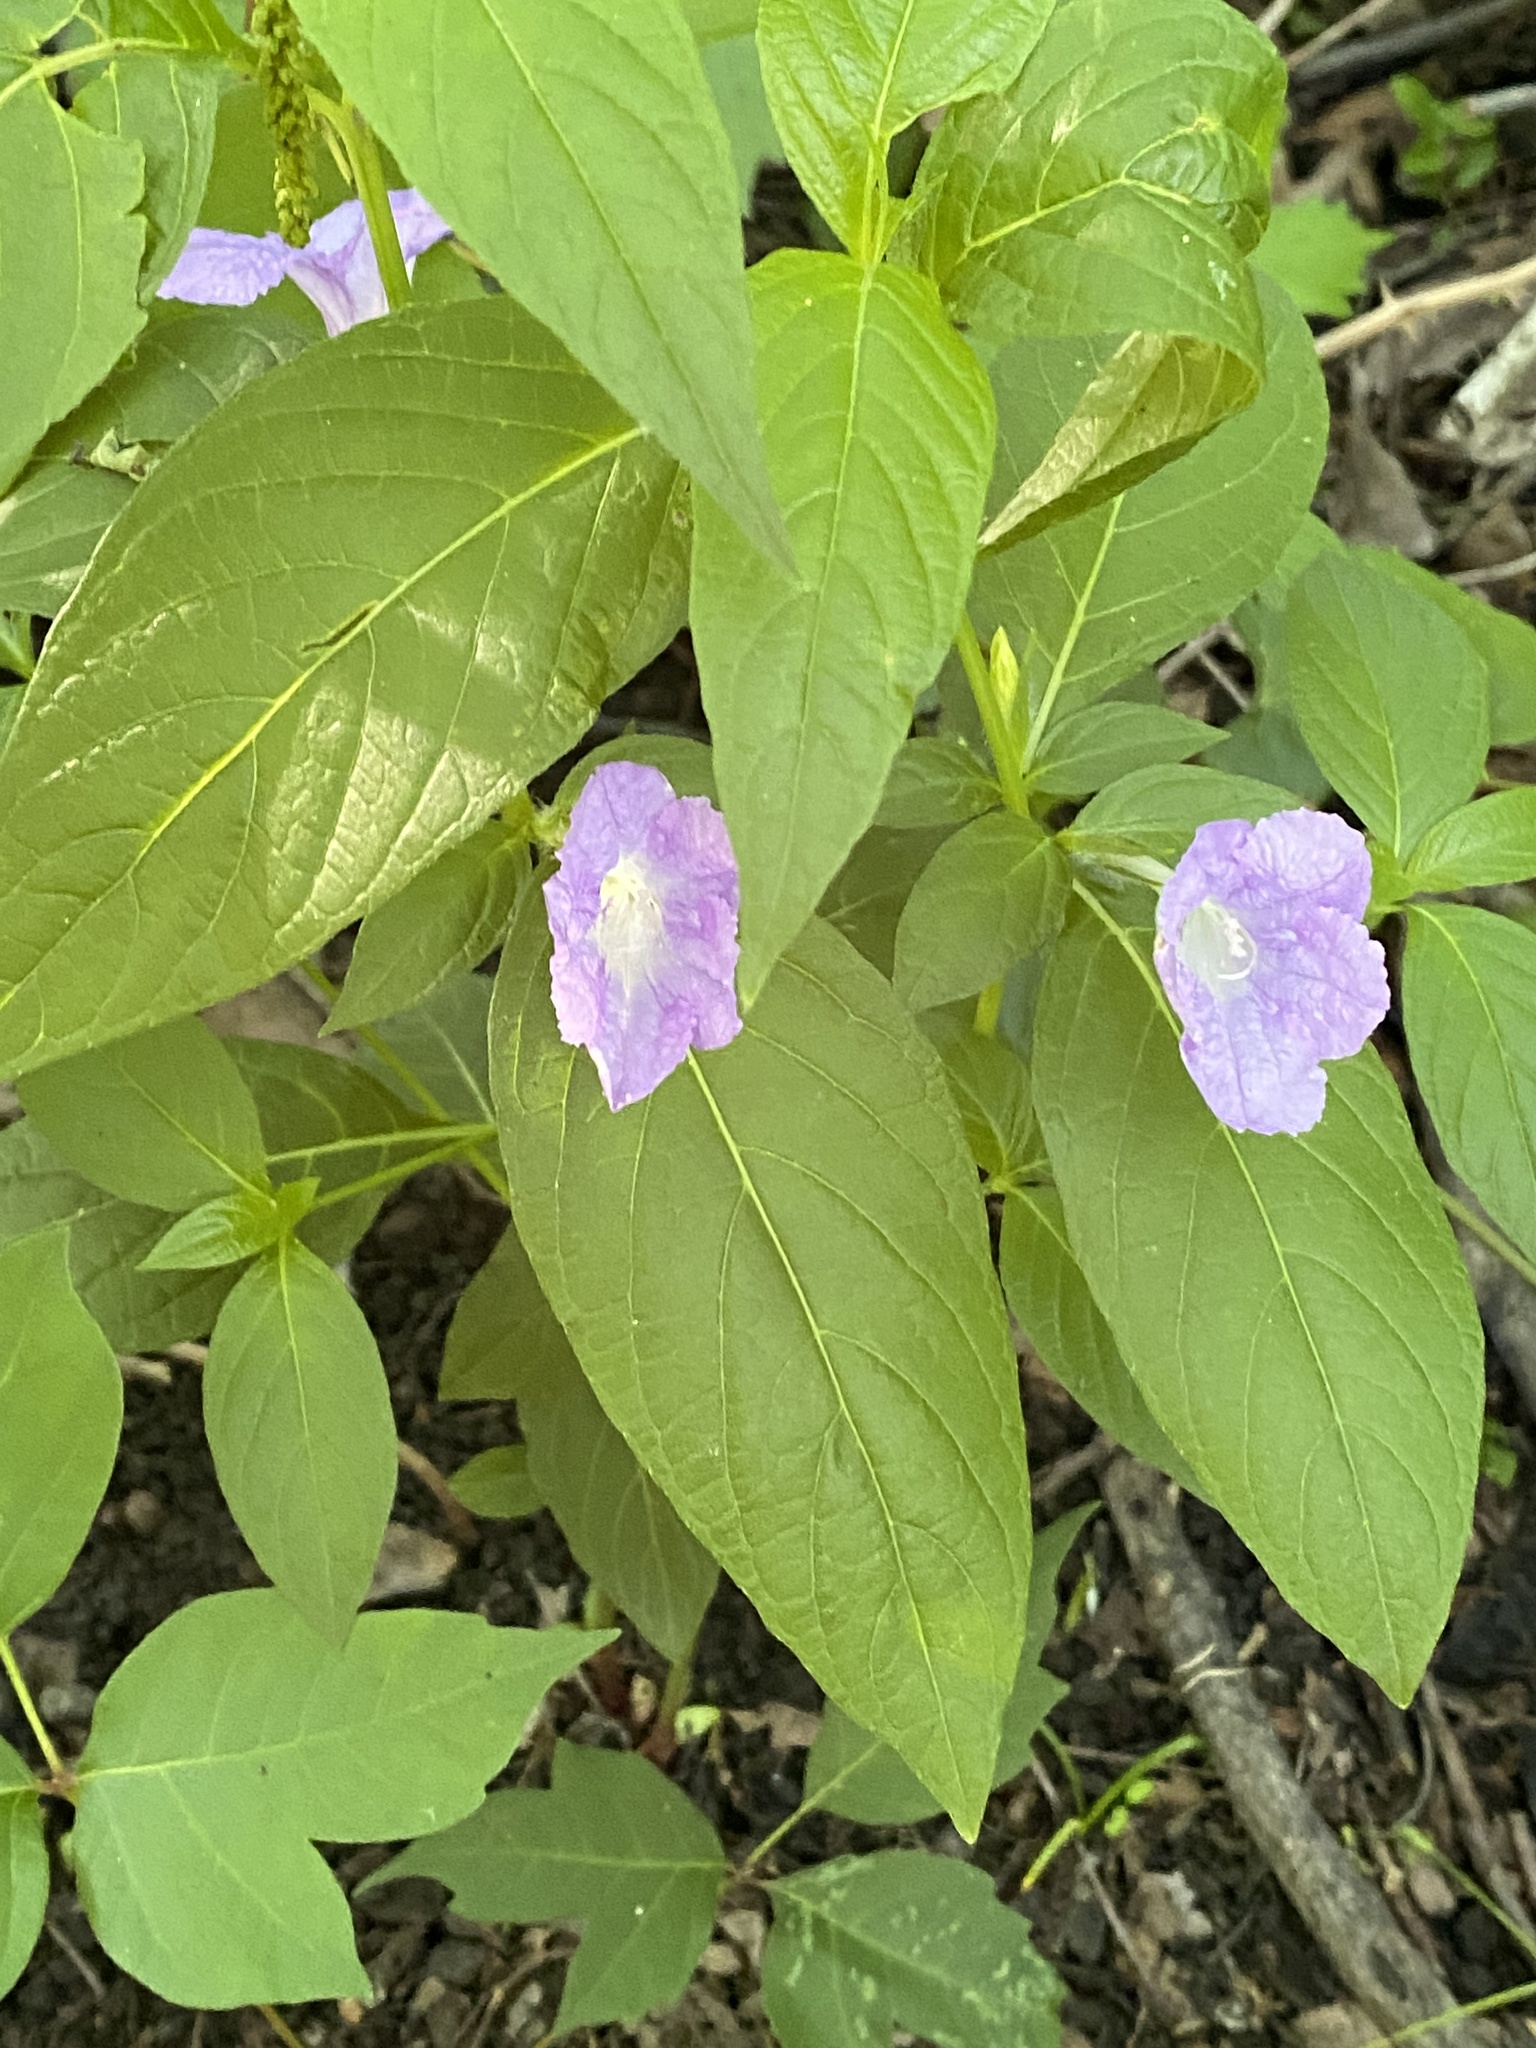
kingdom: Plantae
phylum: Tracheophyta
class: Magnoliopsida
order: Lamiales
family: Acanthaceae
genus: Ruellia
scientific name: Ruellia strepens
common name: Limestone wild petunia
